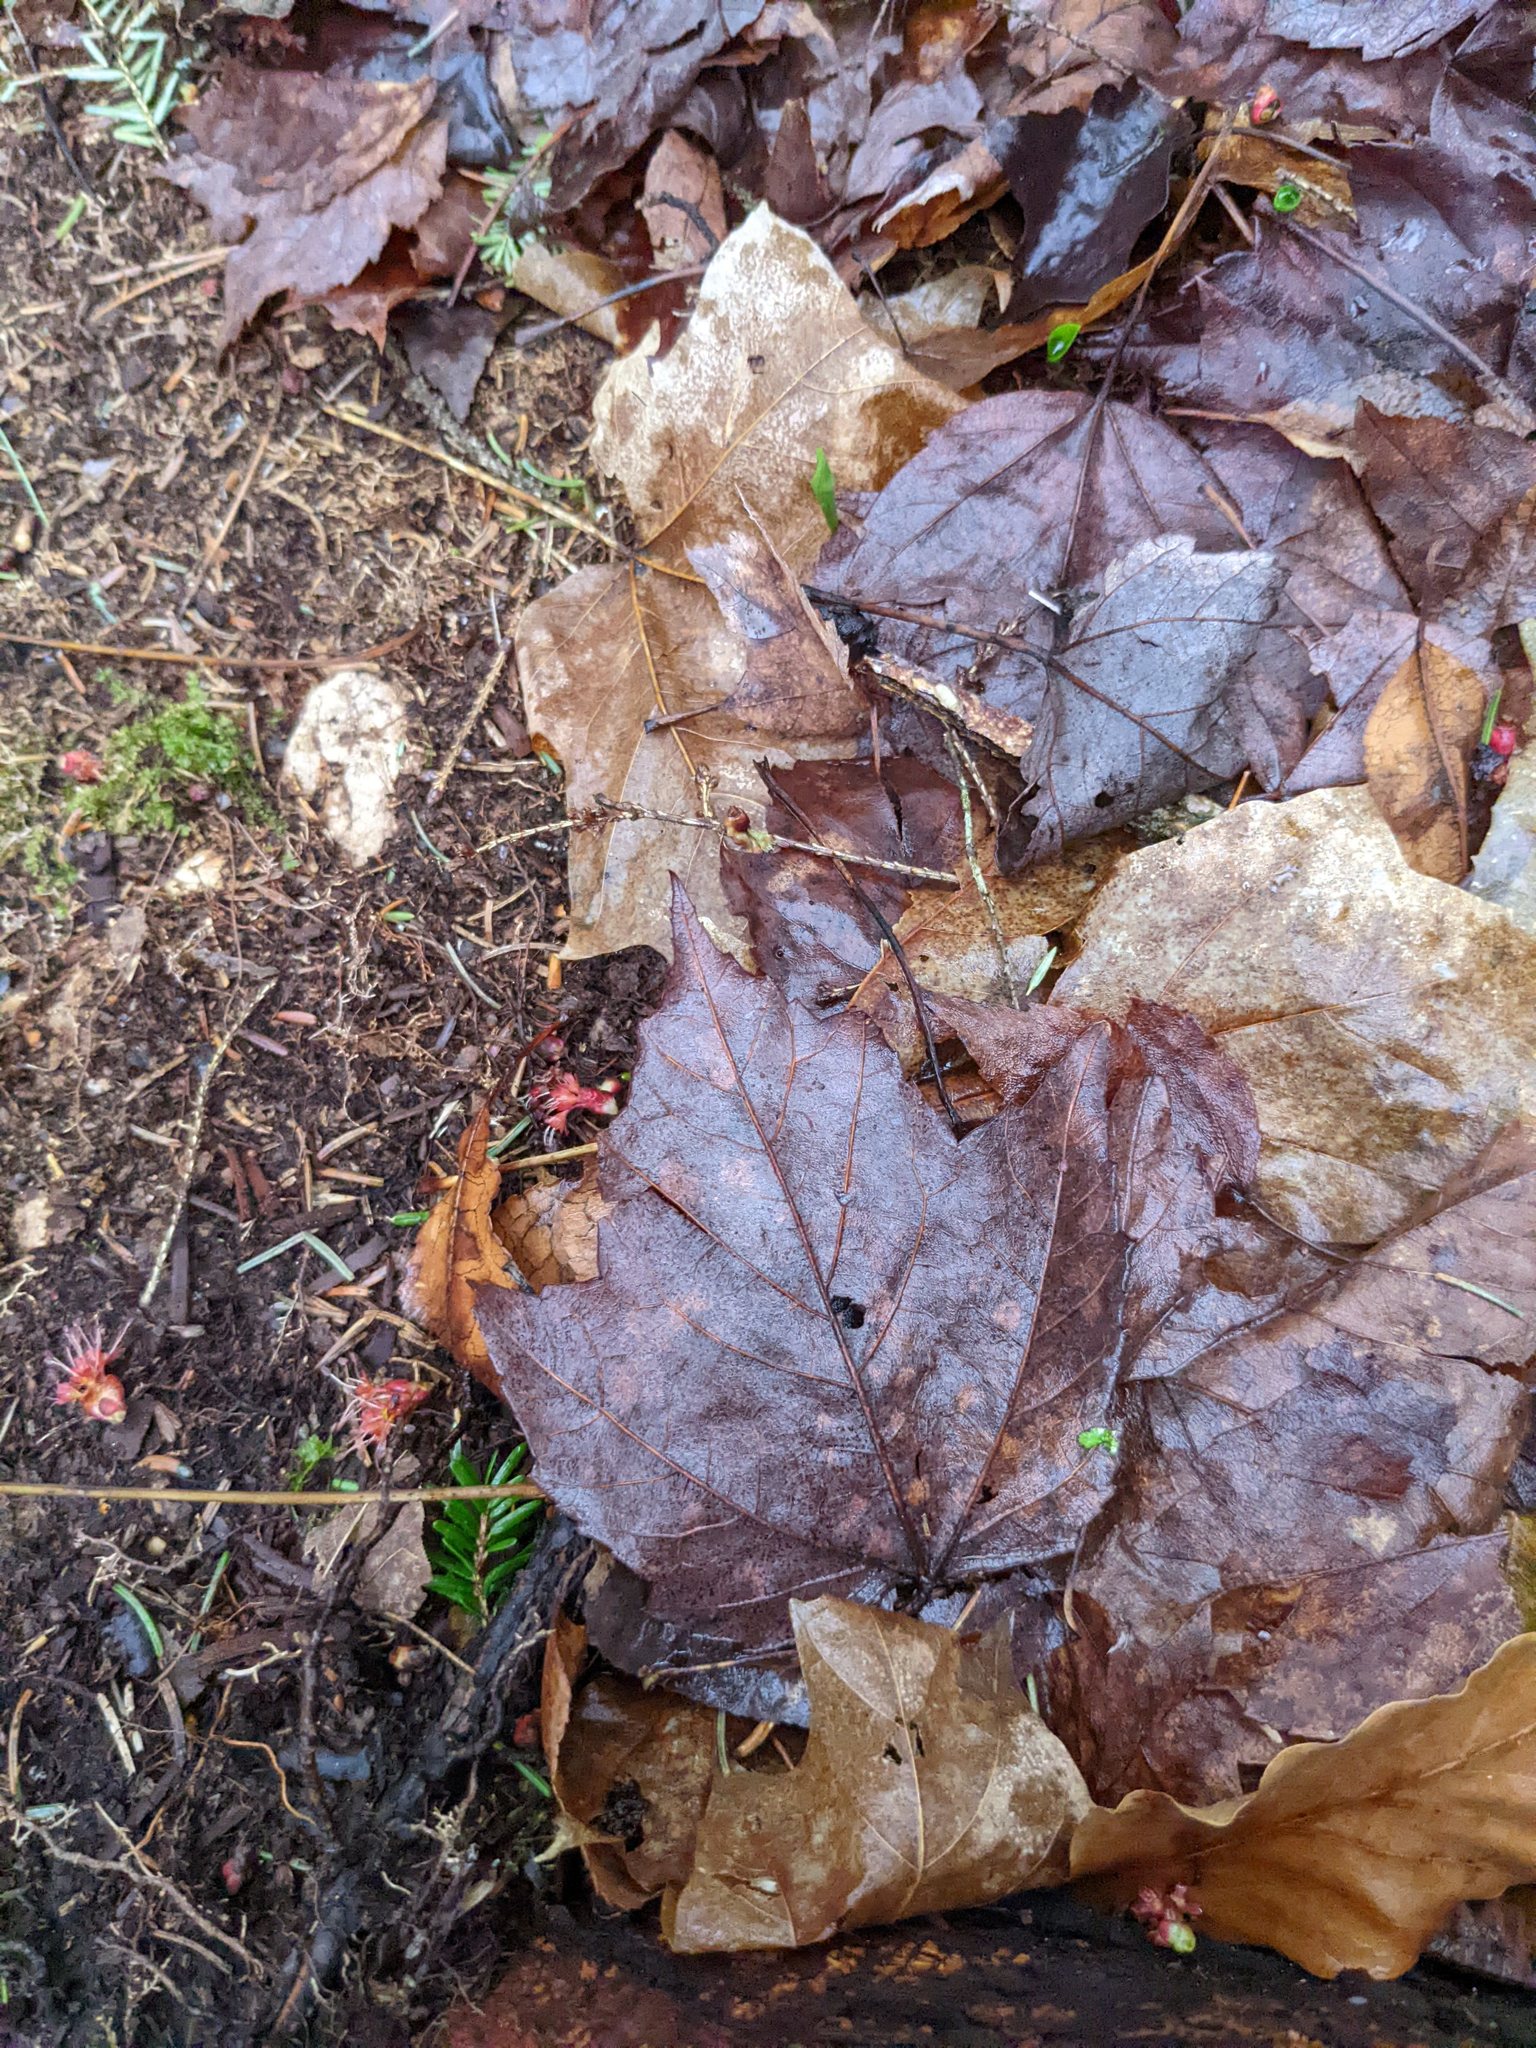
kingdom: Plantae
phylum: Tracheophyta
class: Magnoliopsida
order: Sapindales
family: Sapindaceae
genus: Acer
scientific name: Acer rubrum
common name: Red maple
